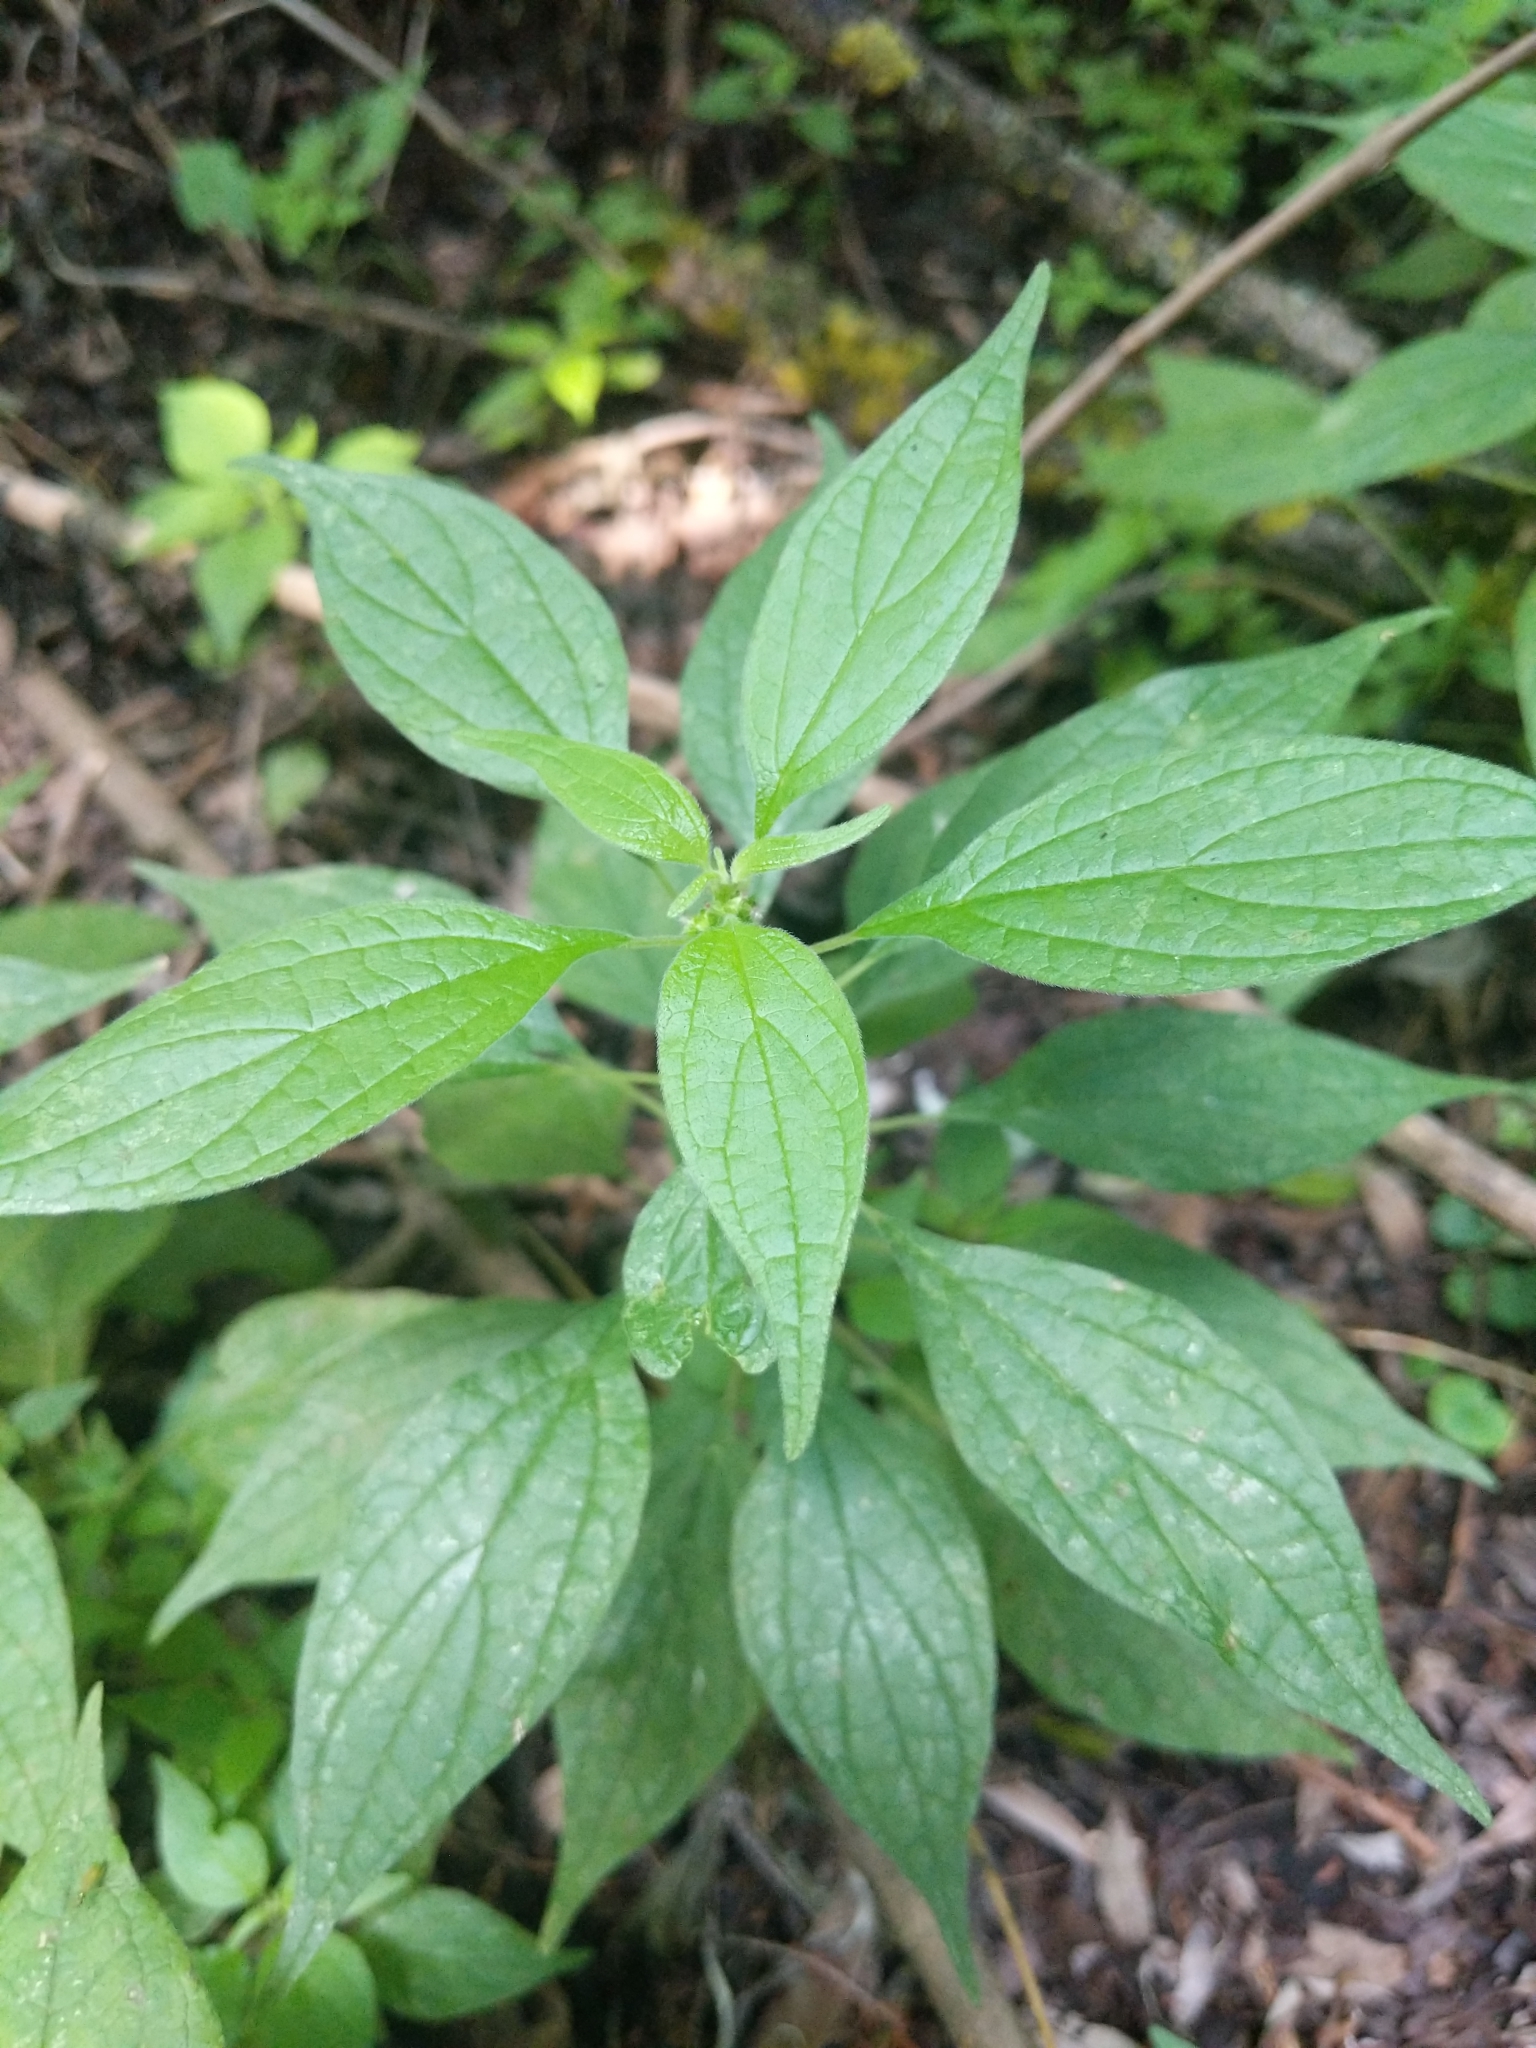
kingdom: Plantae
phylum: Tracheophyta
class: Magnoliopsida
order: Rosales
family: Urticaceae
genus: Parietaria
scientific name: Parietaria officinalis
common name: Eastern pellitory-of-the-wall
